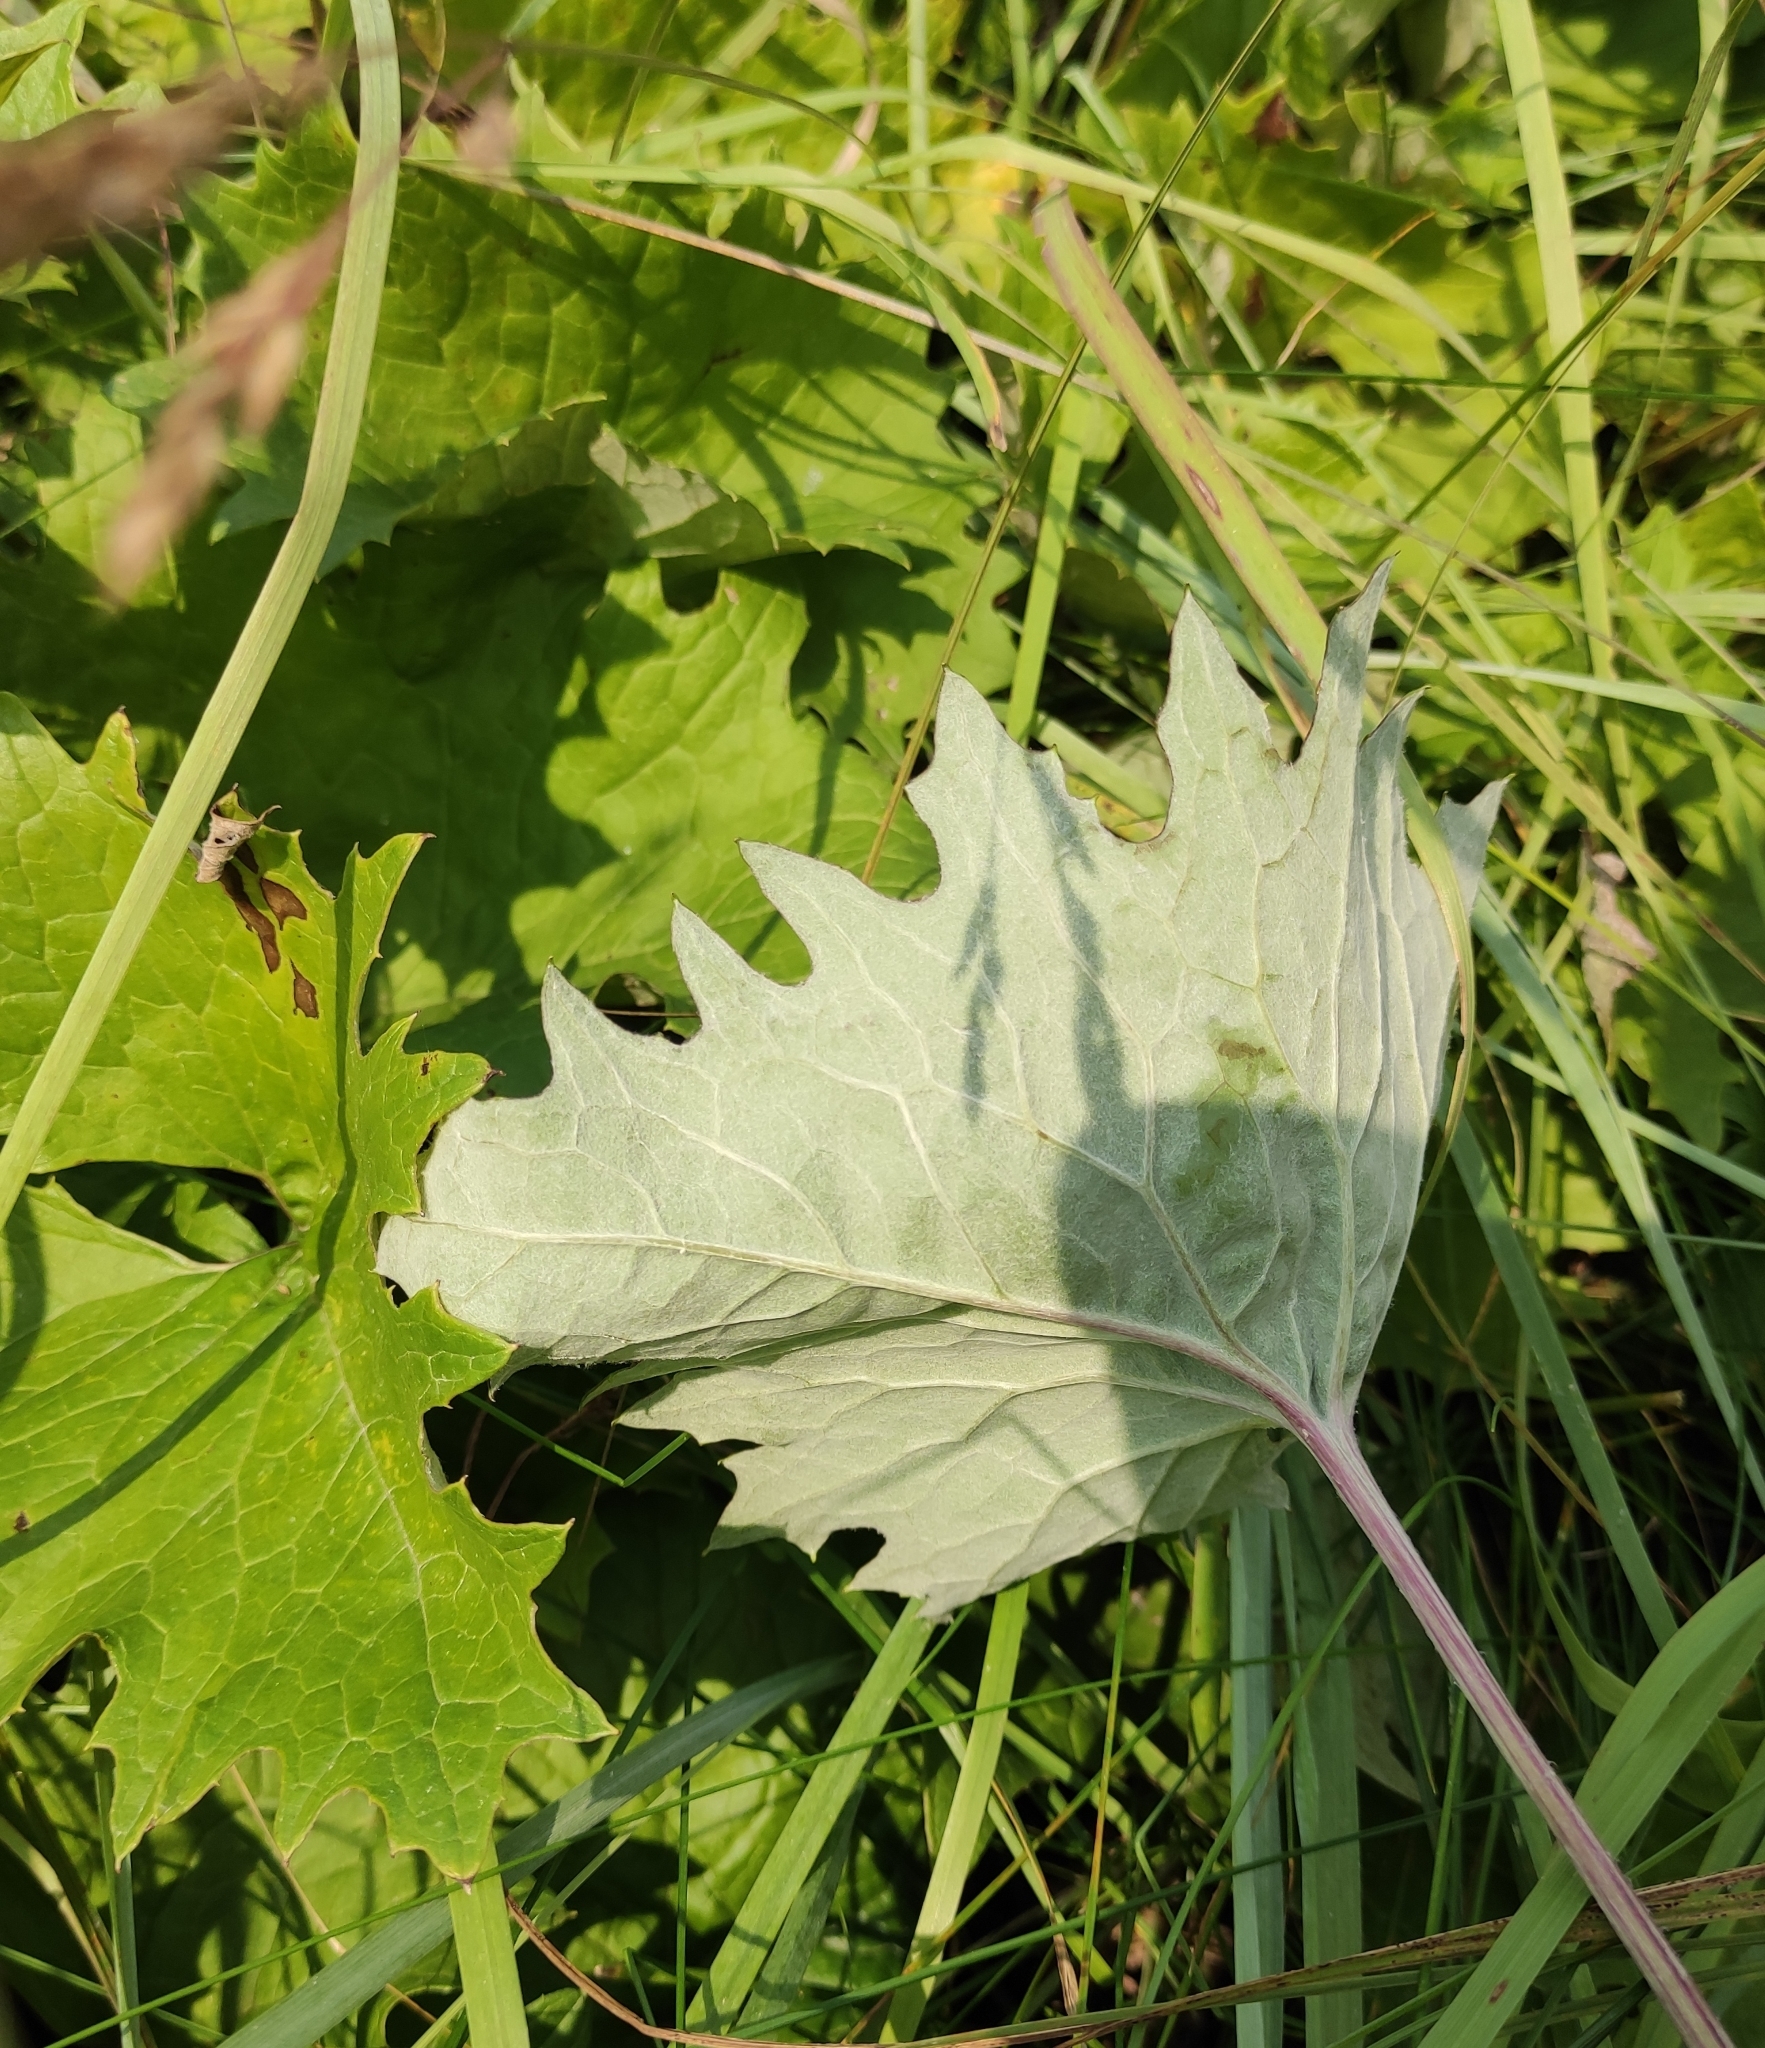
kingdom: Plantae
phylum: Tracheophyta
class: Magnoliopsida
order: Asterales
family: Asteraceae
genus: Petasites
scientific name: Petasites frigidus
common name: Arctic butterbur
